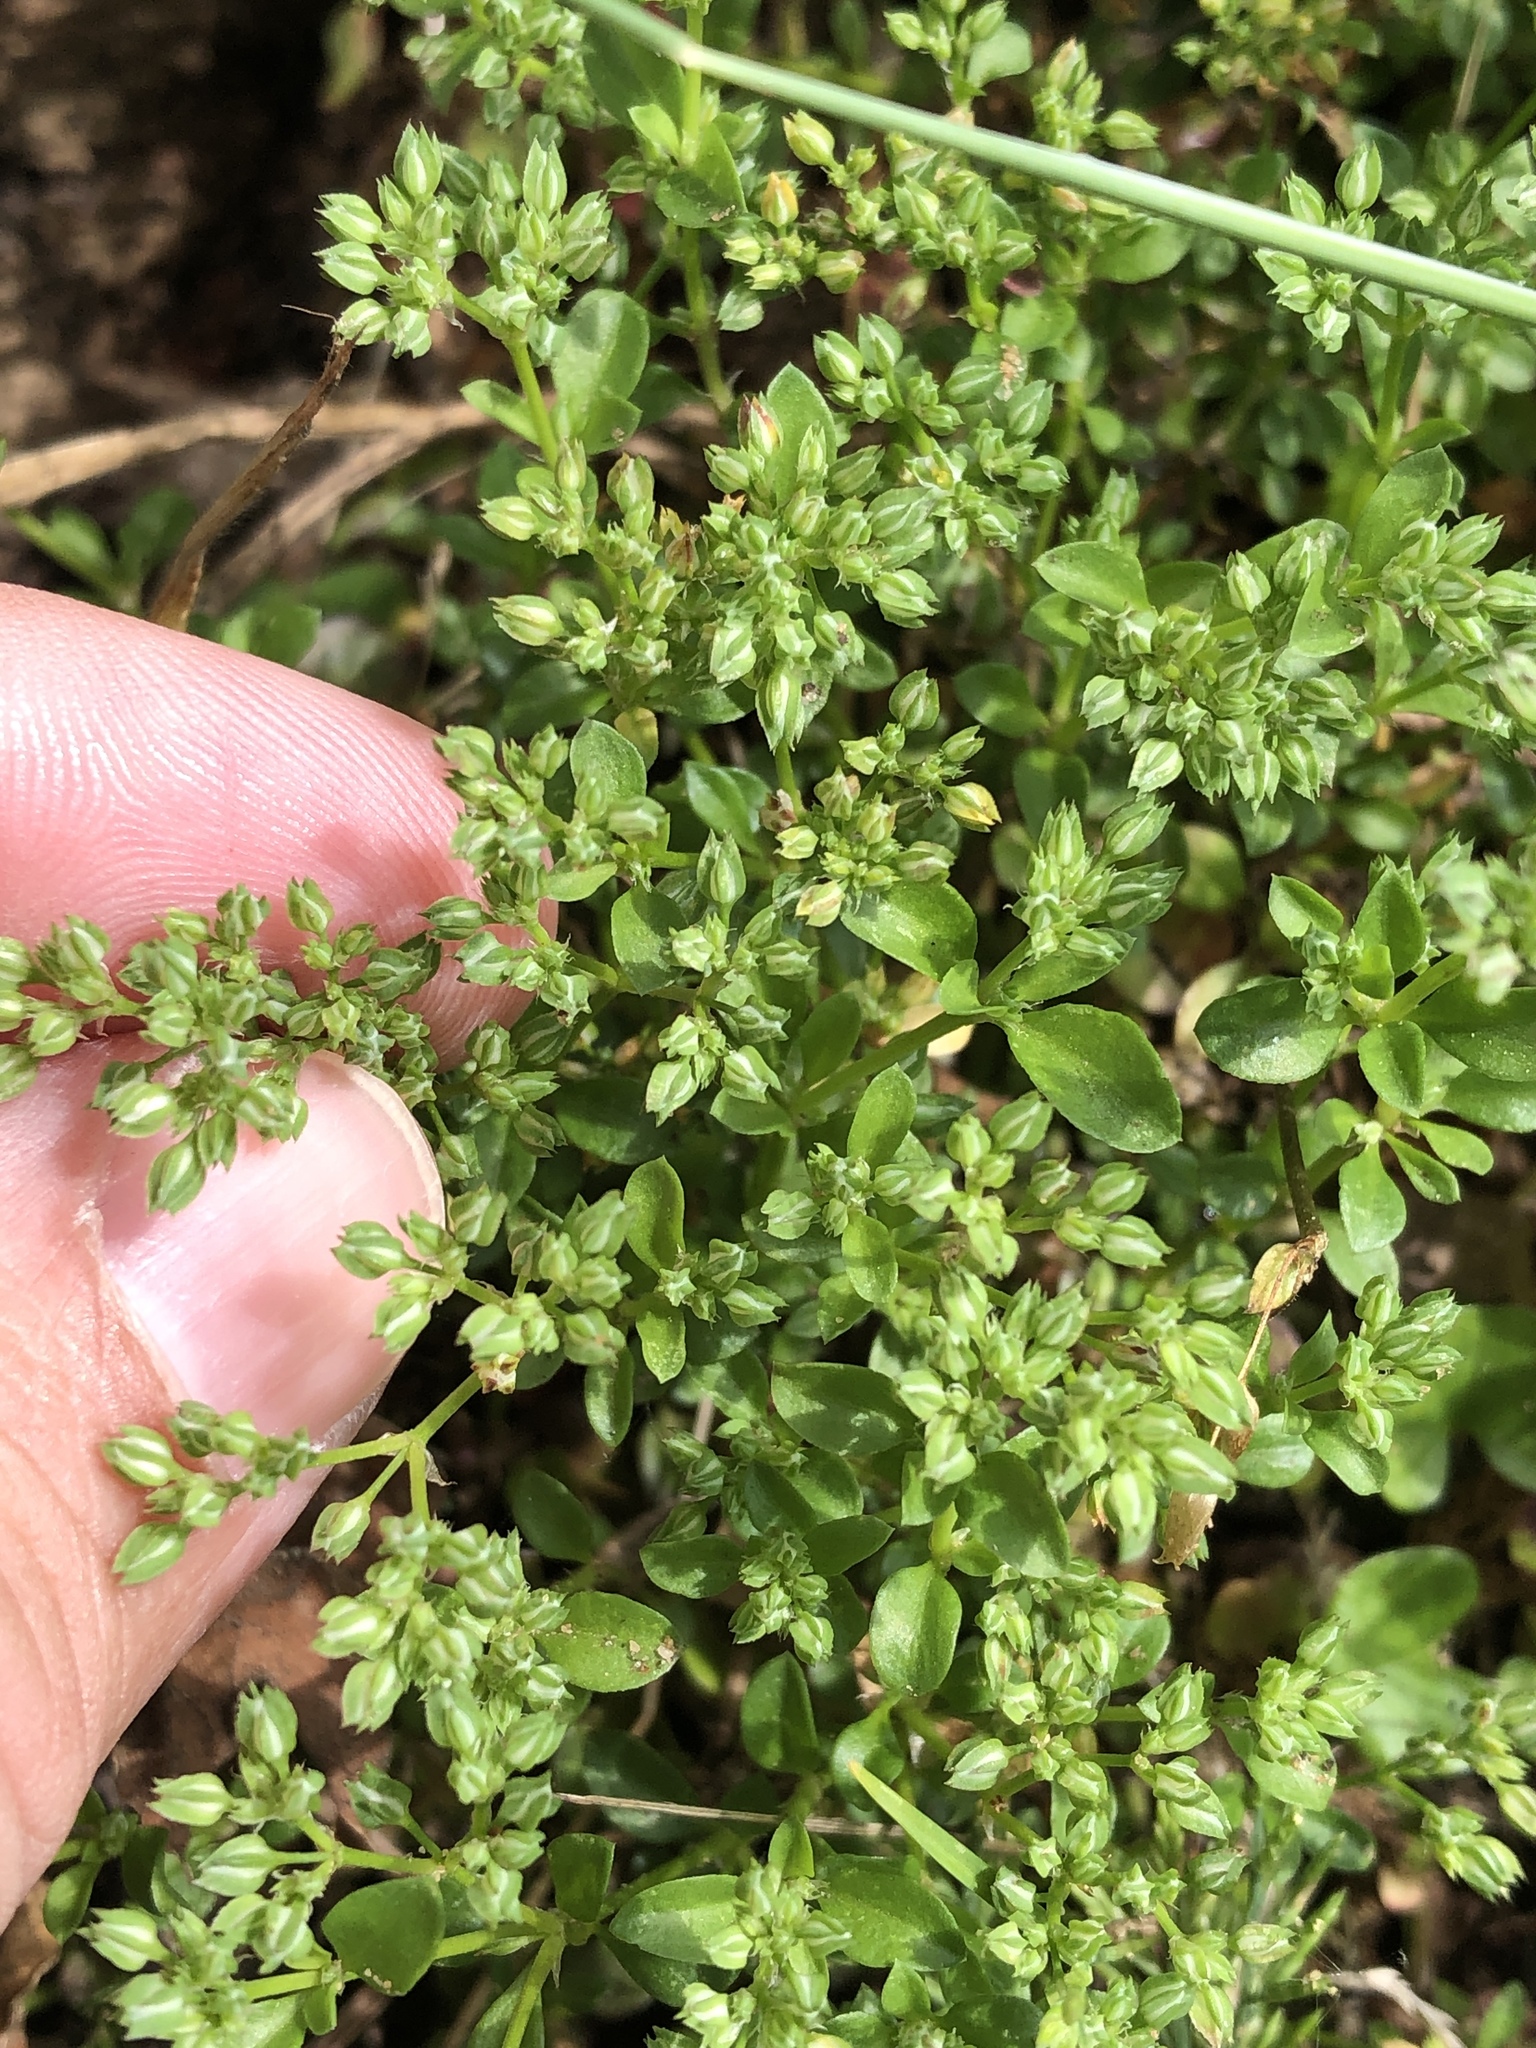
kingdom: Plantae
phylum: Tracheophyta
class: Magnoliopsida
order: Caryophyllales
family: Caryophyllaceae
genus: Polycarpon
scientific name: Polycarpon tetraphyllum
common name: Four-leaved all-seed
